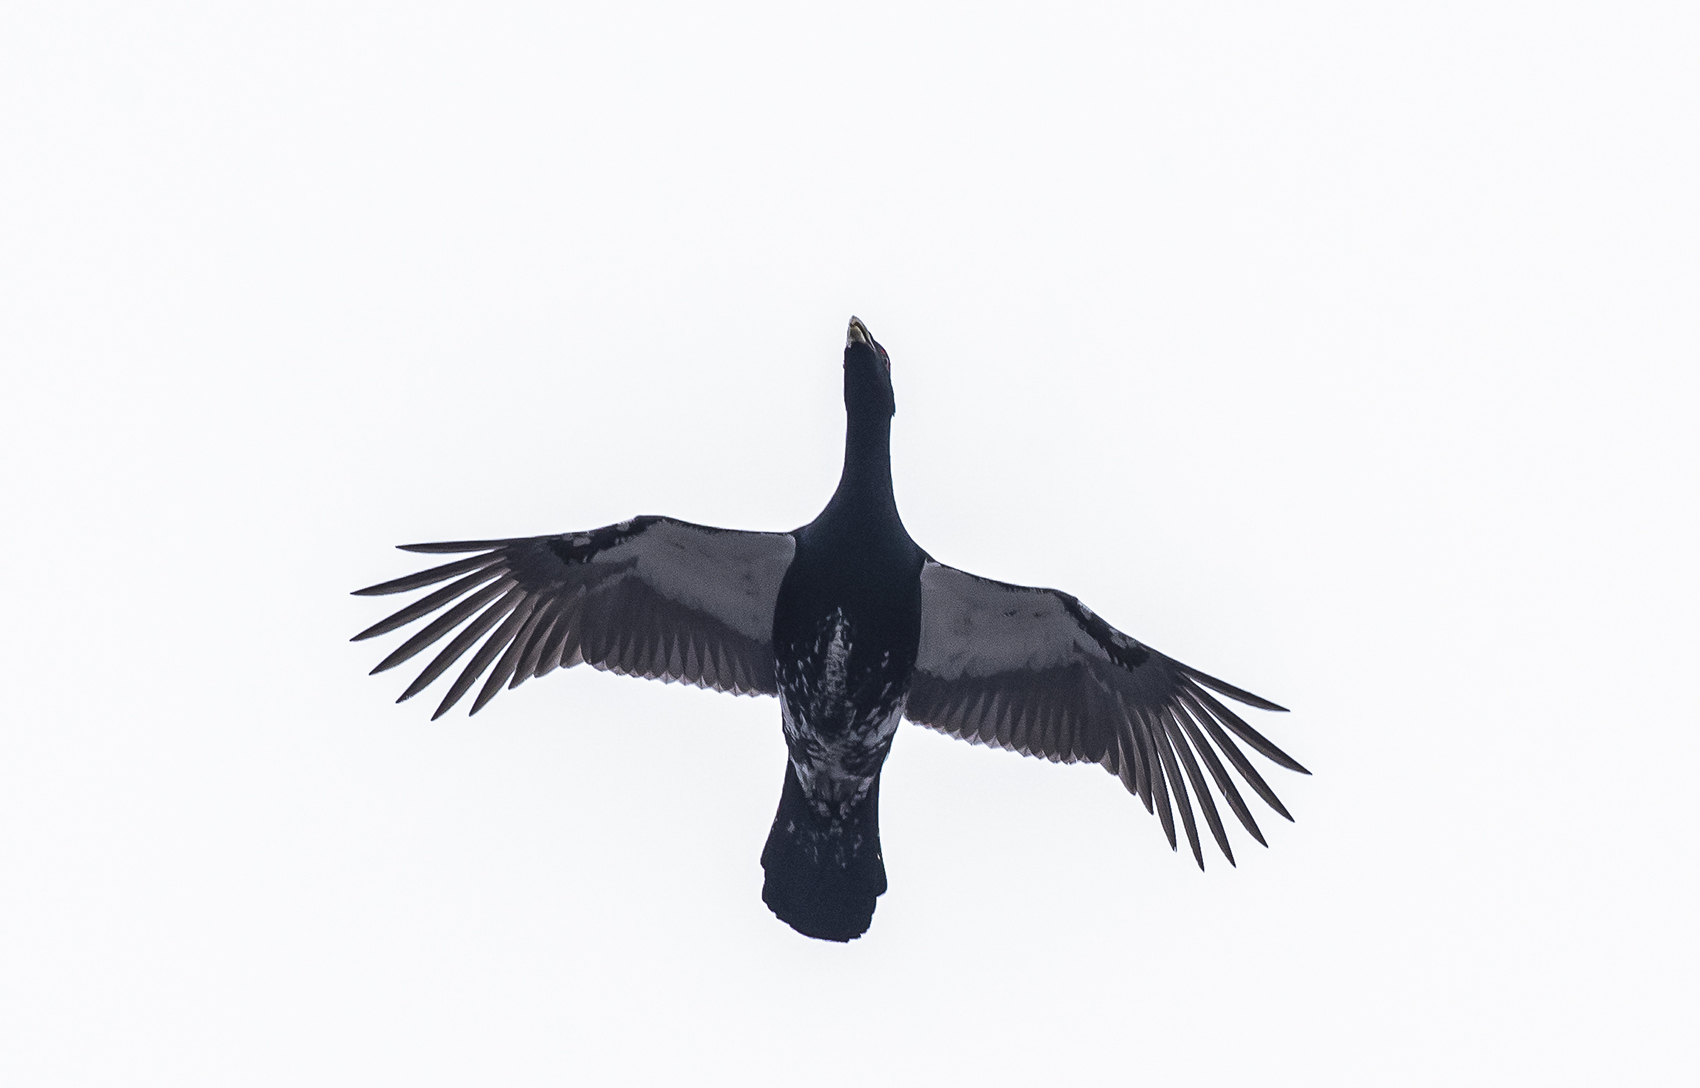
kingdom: Animalia
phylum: Chordata
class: Aves
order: Galliformes
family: Phasianidae
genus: Tetrao
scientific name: Tetrao urogallus
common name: Western capercaillie
